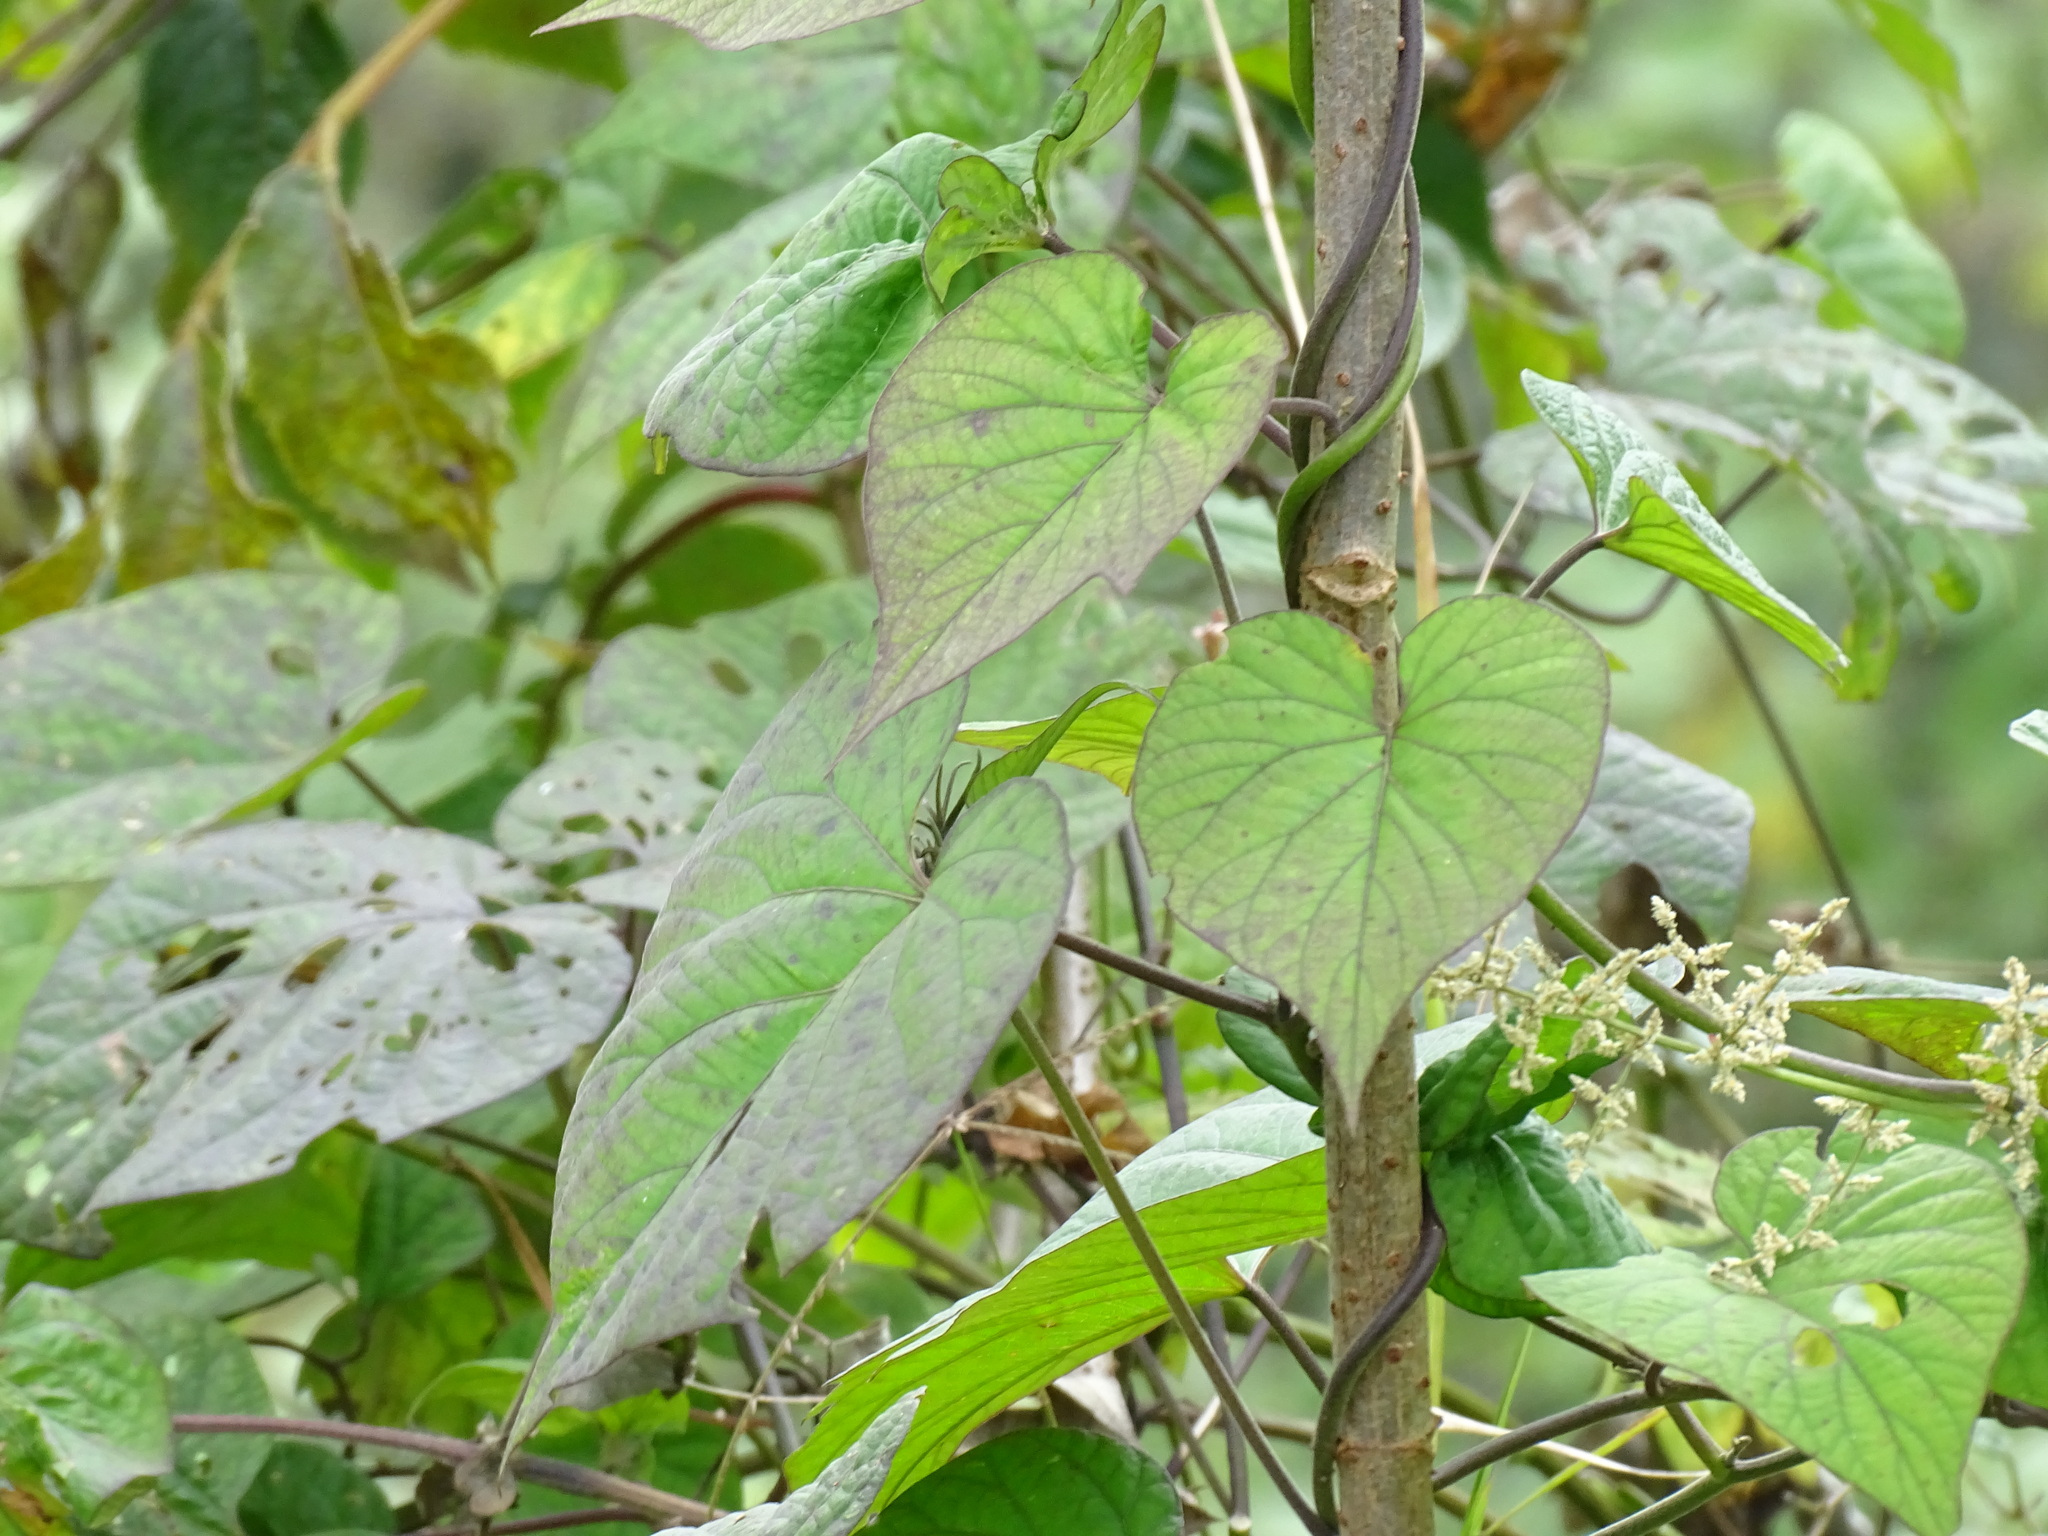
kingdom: Plantae
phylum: Tracheophyta
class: Magnoliopsida
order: Solanales
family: Convolvulaceae
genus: Ipomoea
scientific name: Ipomoea indica
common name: Blue dawnflower
